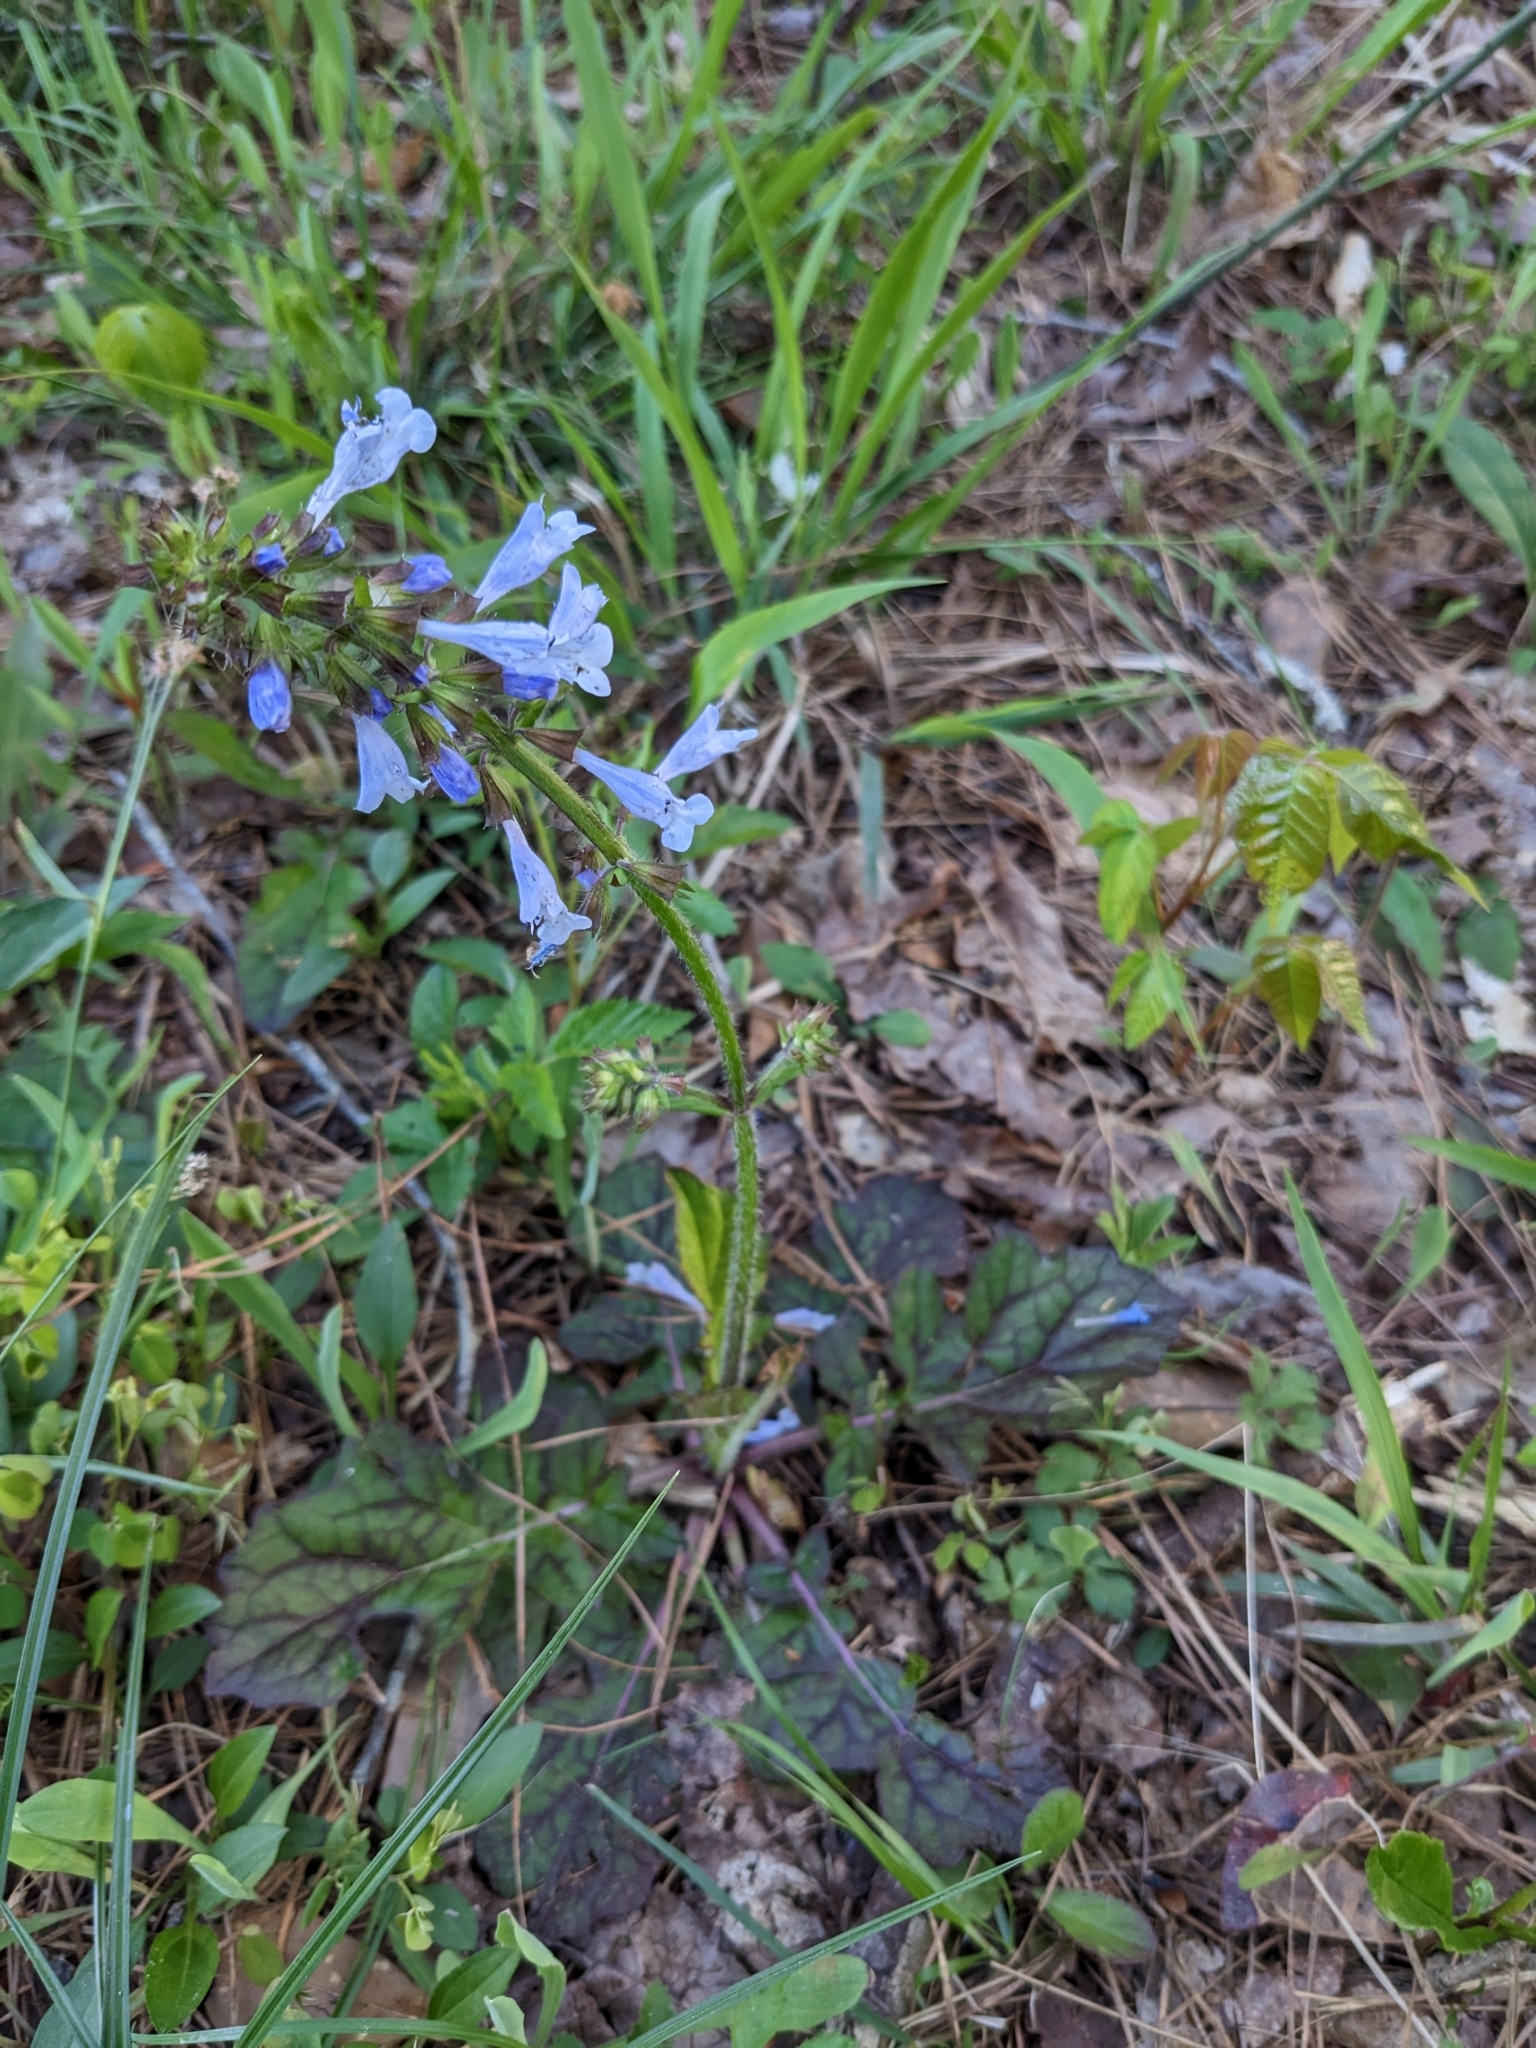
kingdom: Plantae
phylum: Tracheophyta
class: Magnoliopsida
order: Lamiales
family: Lamiaceae
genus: Salvia
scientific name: Salvia lyrata
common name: Cancerweed
